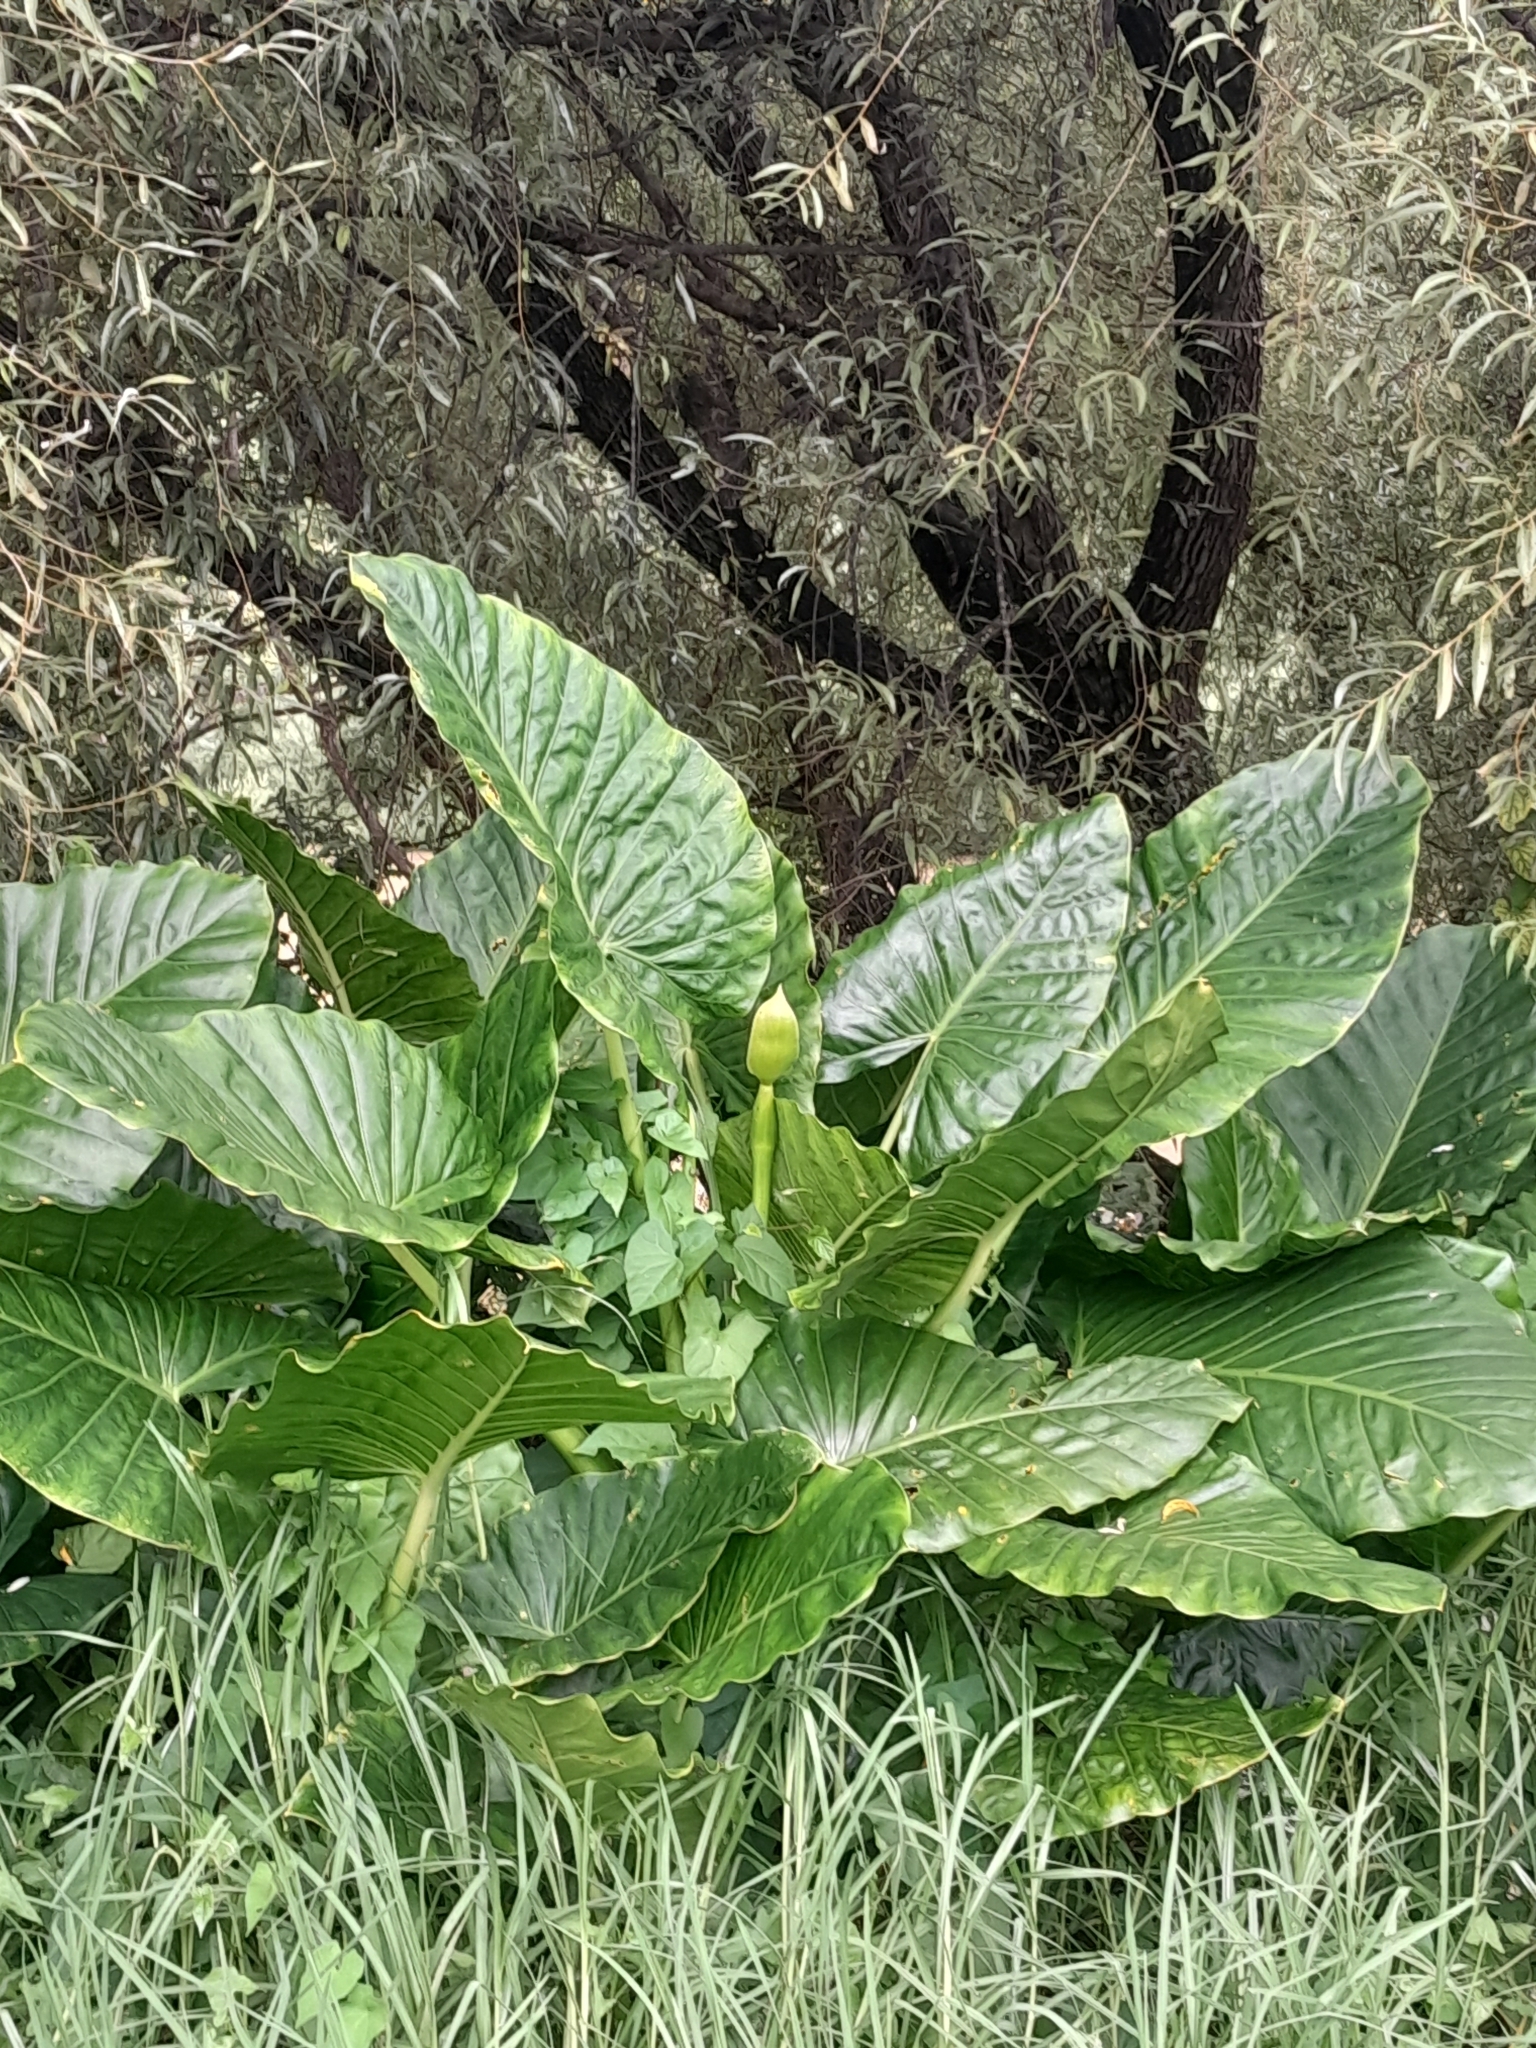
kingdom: Plantae
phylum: Tracheophyta
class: Liliopsida
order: Alismatales
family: Araceae
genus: Alocasia
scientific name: Alocasia brisbanensis
